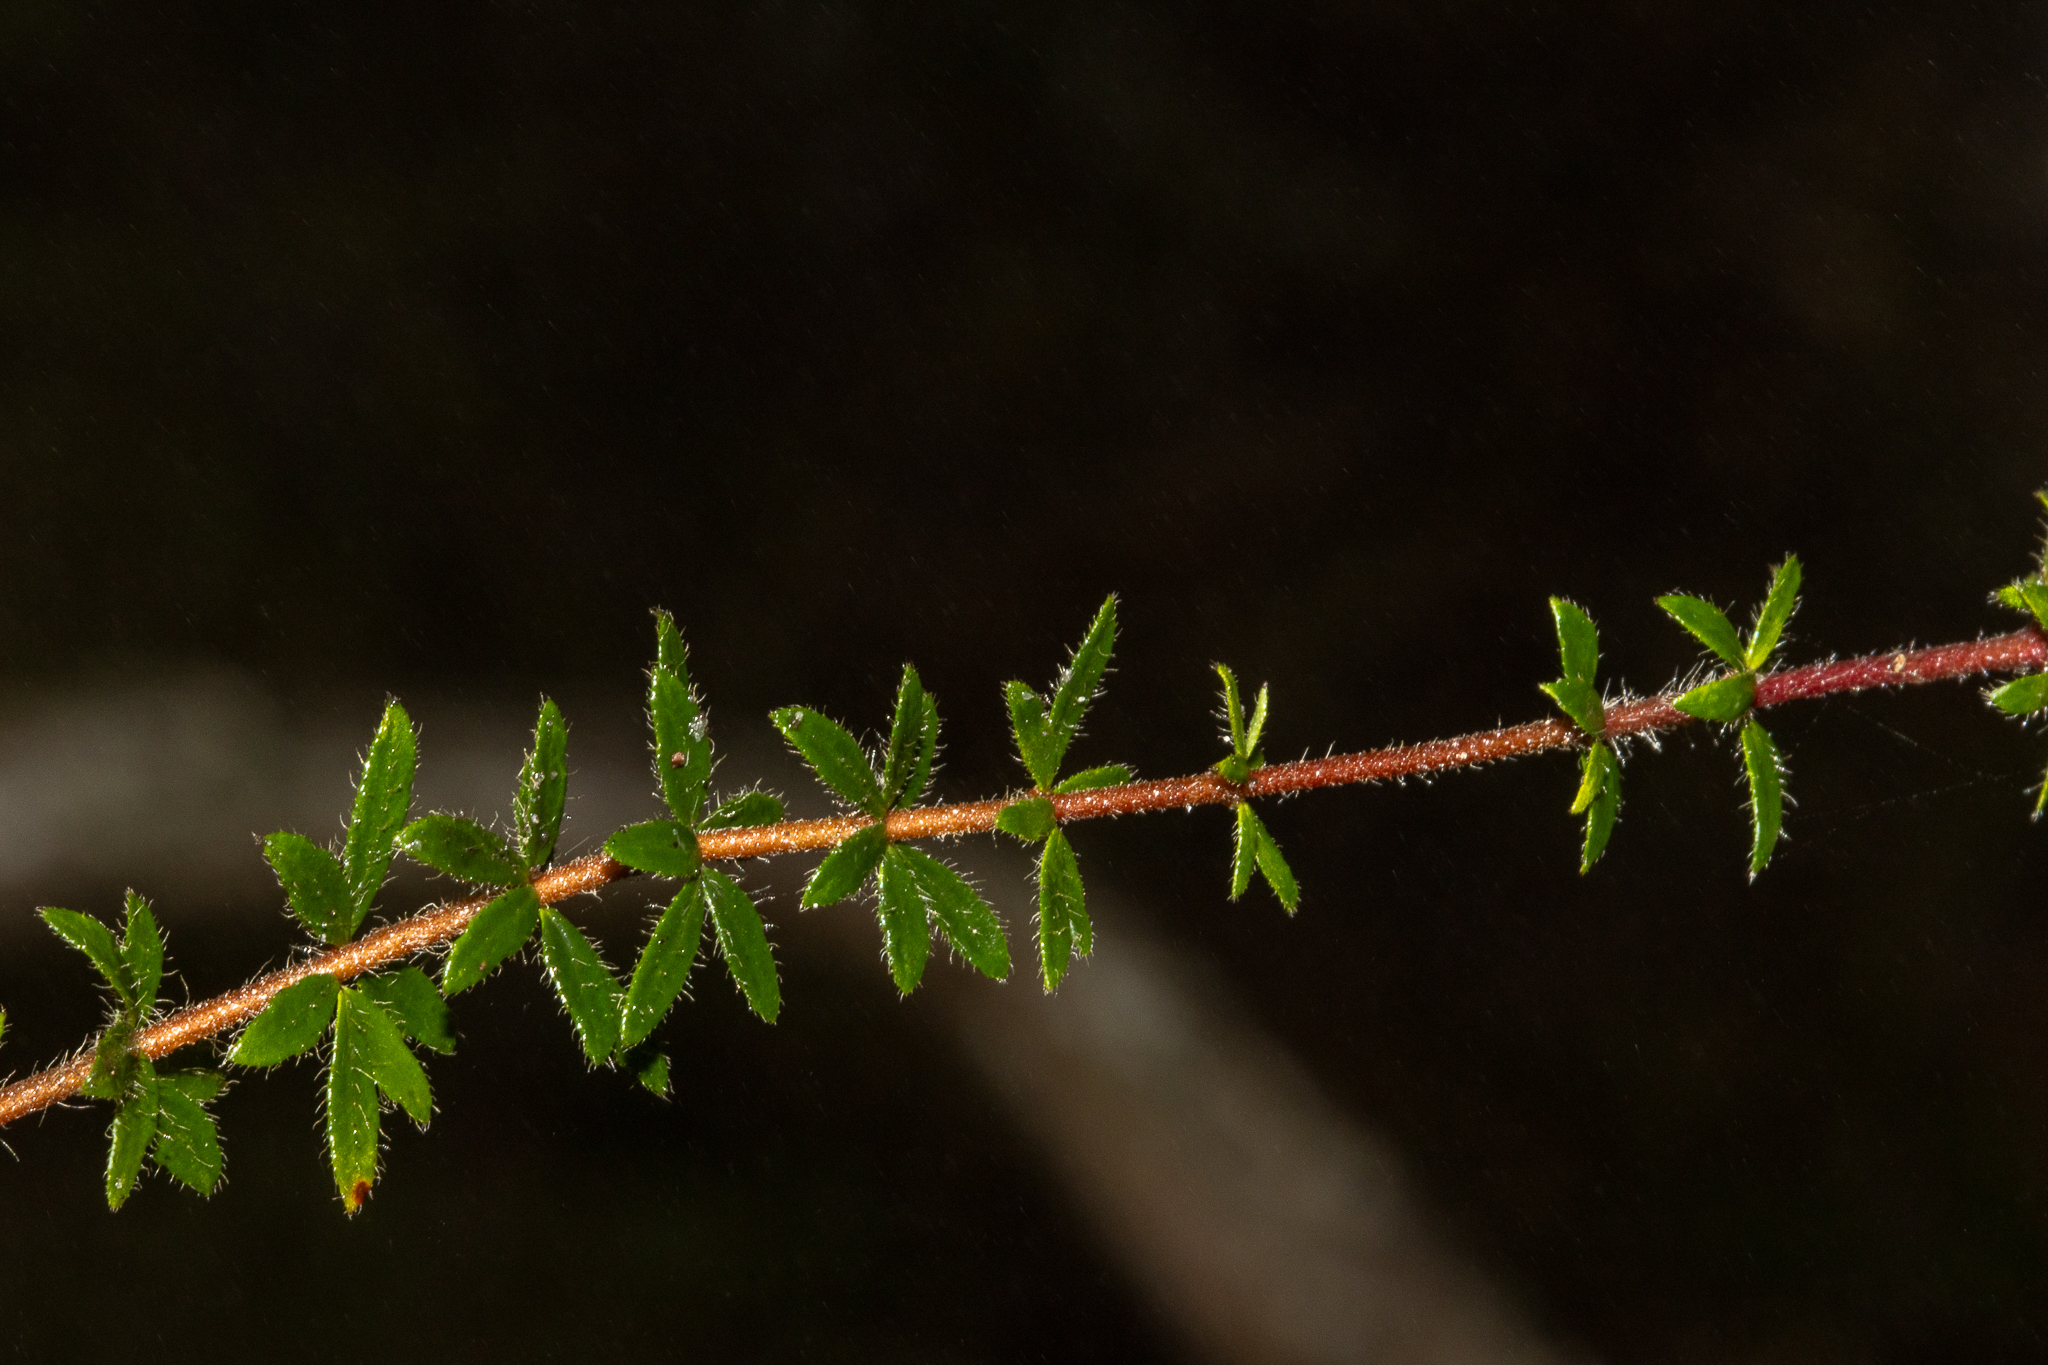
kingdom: Plantae
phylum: Tracheophyta
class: Magnoliopsida
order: Oxalidales
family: Cunoniaceae
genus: Bauera
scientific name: Bauera rubioides
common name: River-rose
